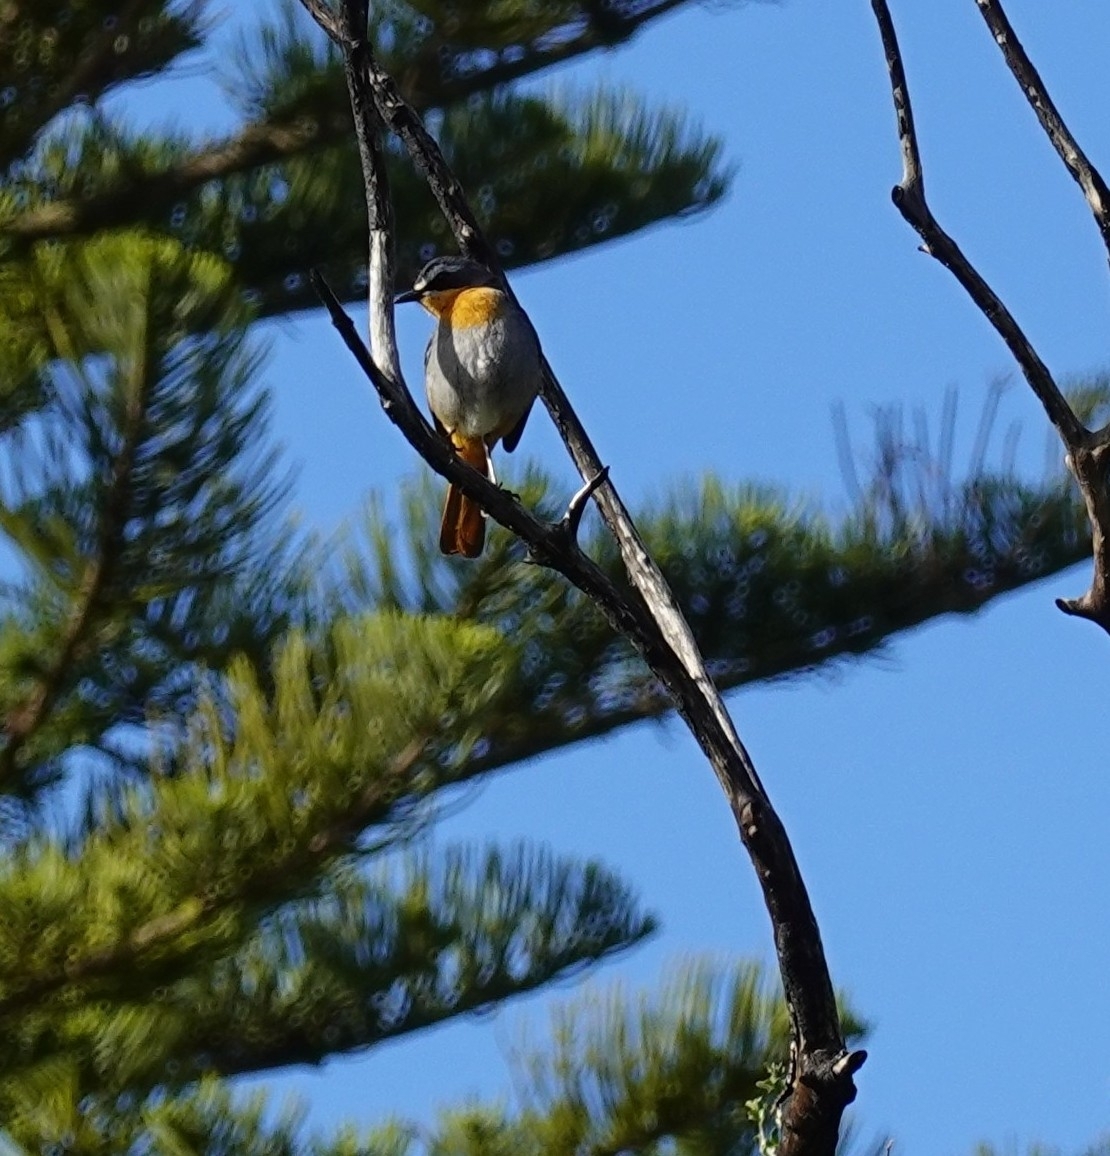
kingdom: Animalia
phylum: Chordata
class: Aves
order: Passeriformes
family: Muscicapidae
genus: Cossypha
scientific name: Cossypha caffra
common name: Cape robin-chat
